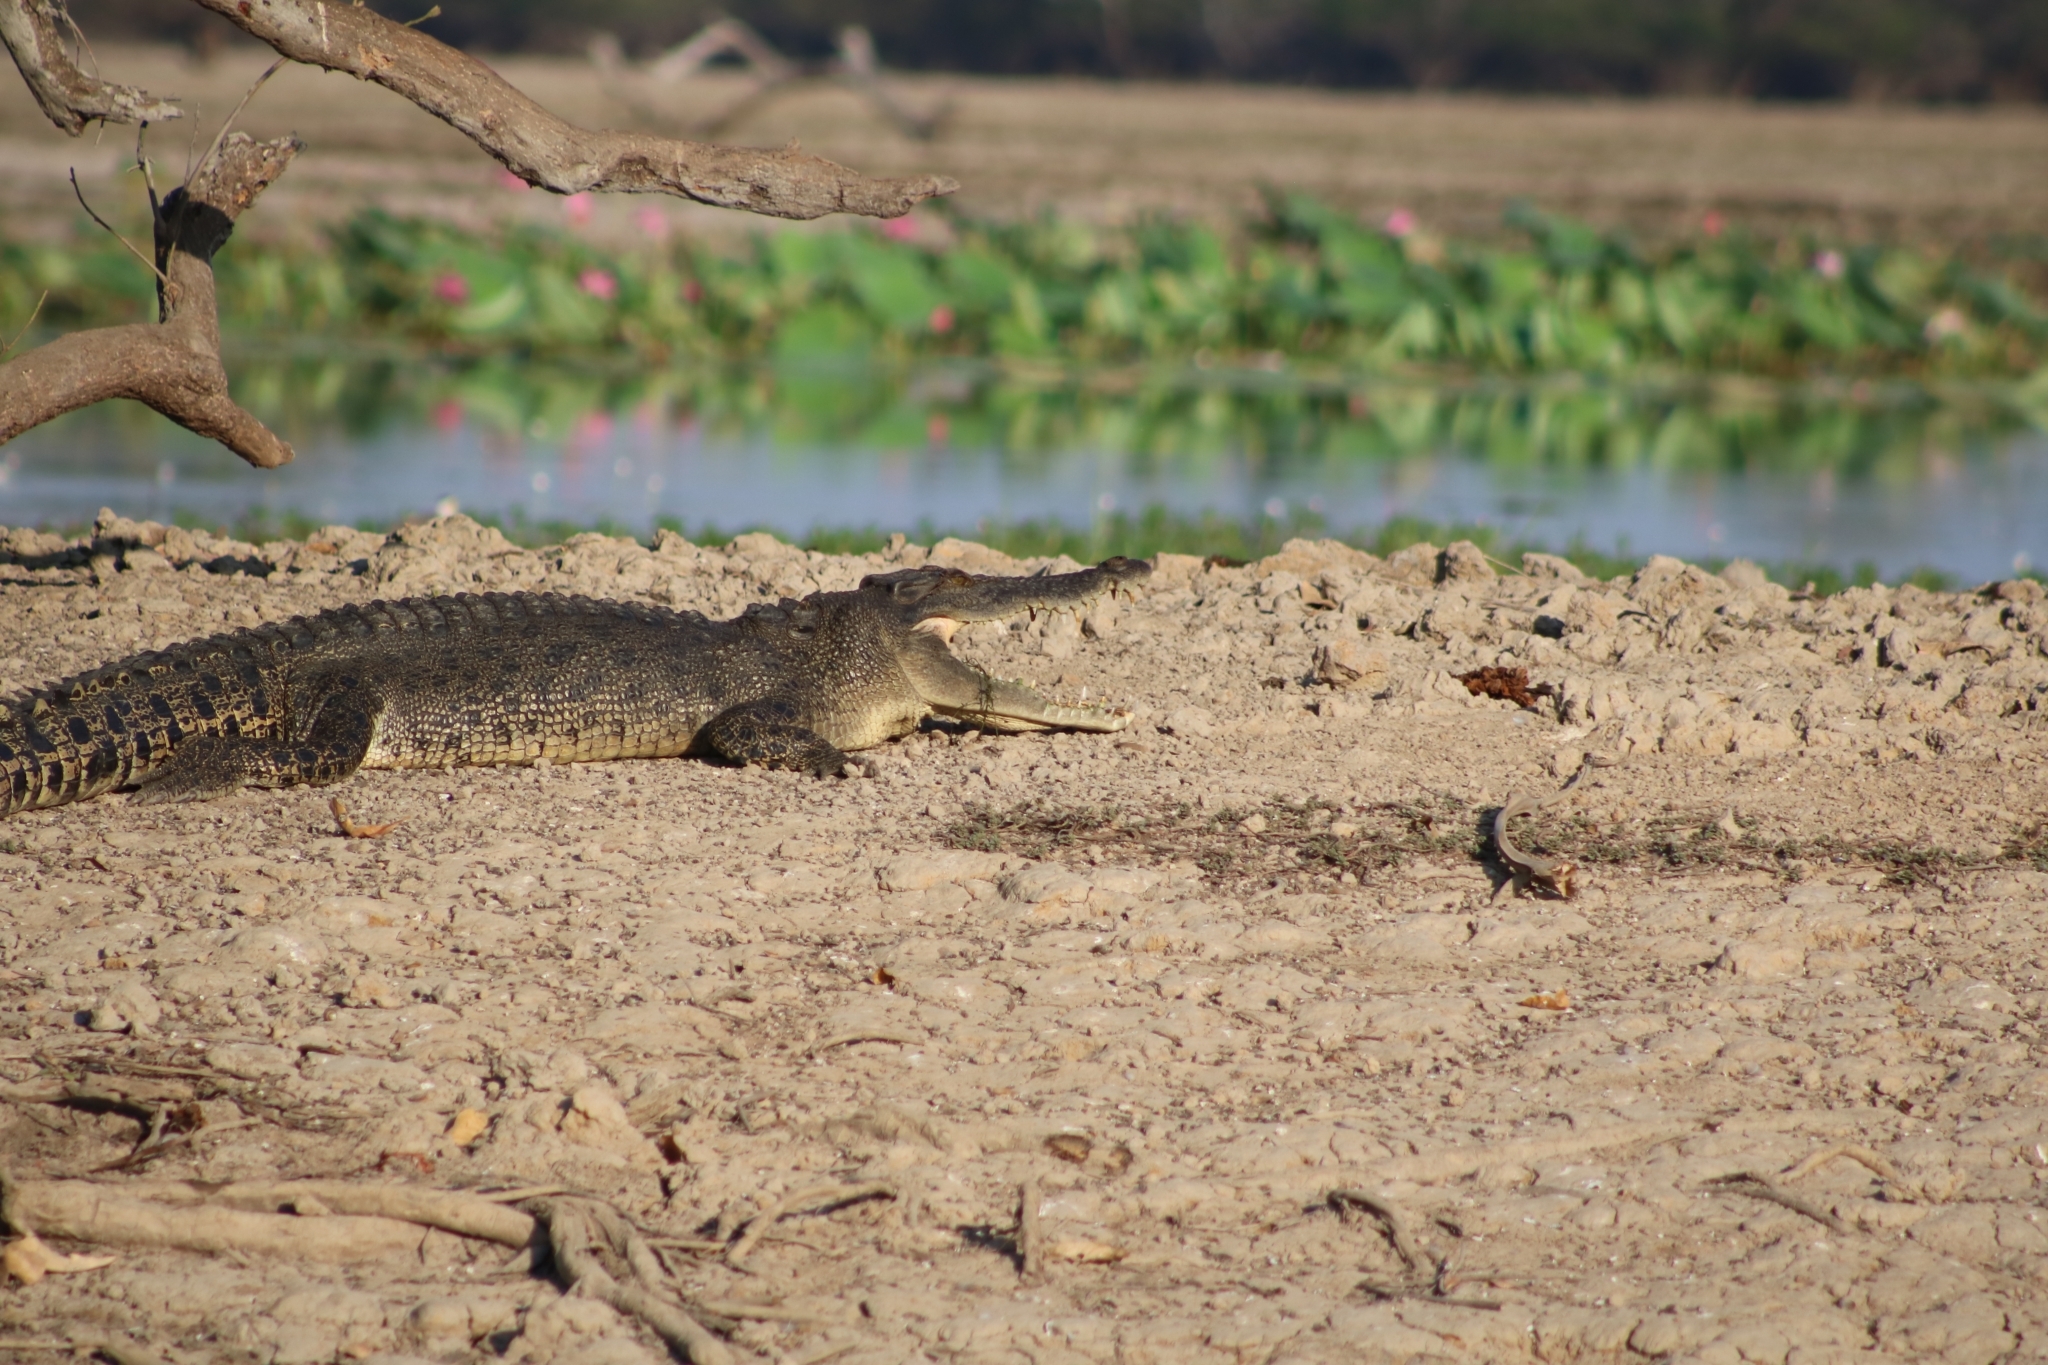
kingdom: Animalia
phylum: Chordata
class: Crocodylia
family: Crocodylidae
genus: Crocodylus
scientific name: Crocodylus porosus
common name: Saltwater crocodile
